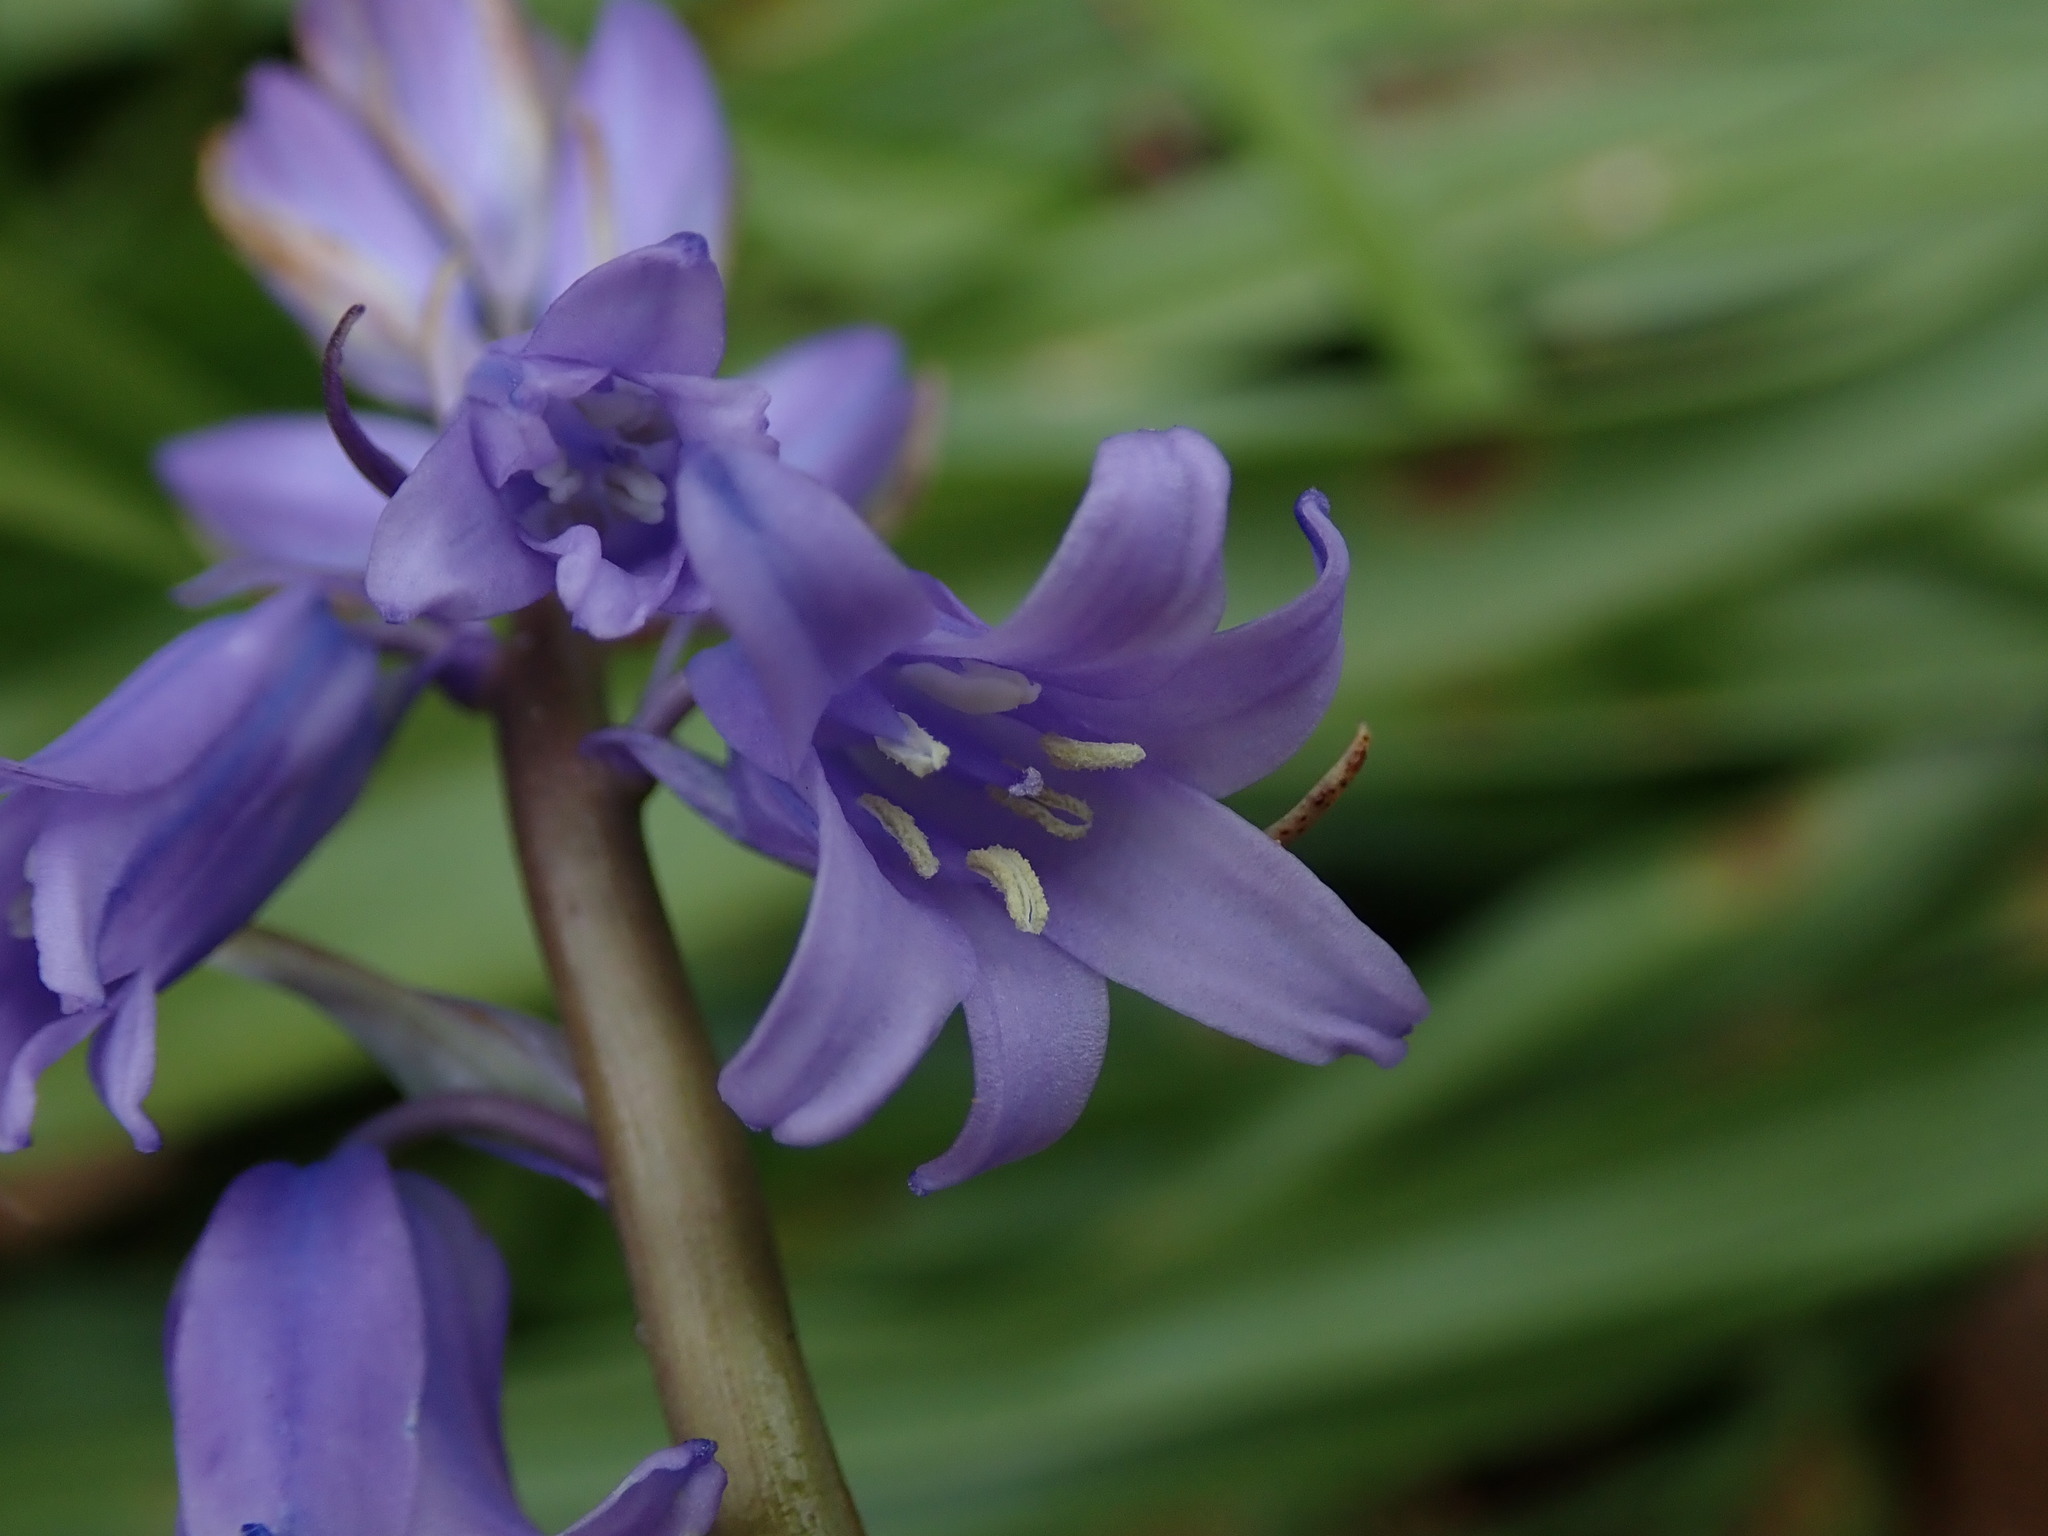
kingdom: Plantae
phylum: Tracheophyta
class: Liliopsida
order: Asparagales
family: Asparagaceae
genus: Hyacinthoides
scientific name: Hyacinthoides massartiana
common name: Hyacinthoides
